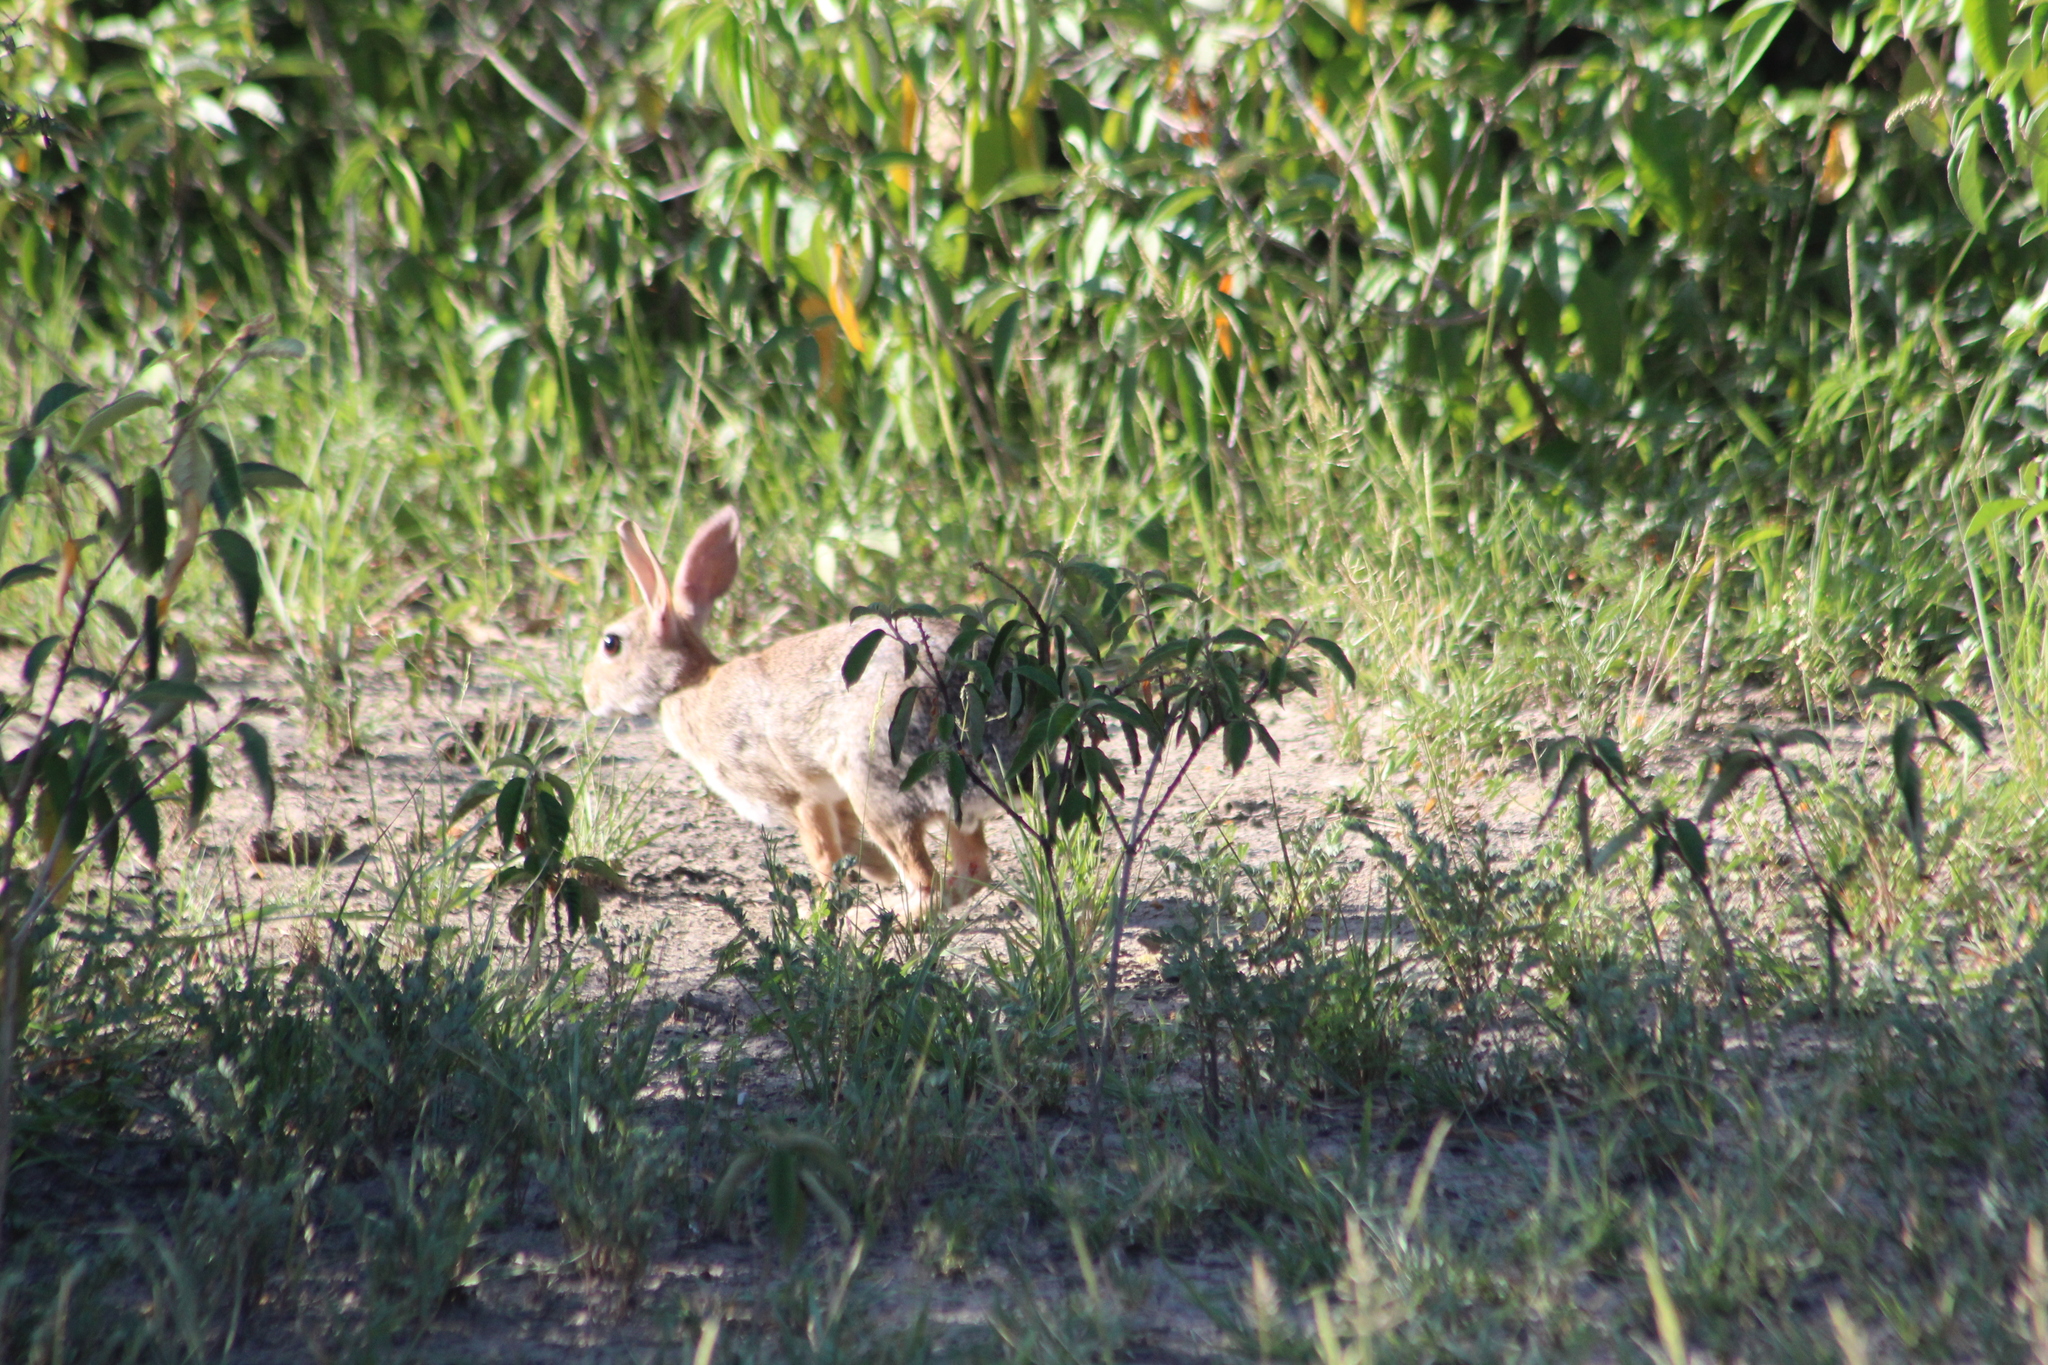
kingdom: Animalia
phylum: Chordata
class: Mammalia
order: Lagomorpha
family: Leporidae
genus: Sylvilagus
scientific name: Sylvilagus floridanus
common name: Eastern cottontail
